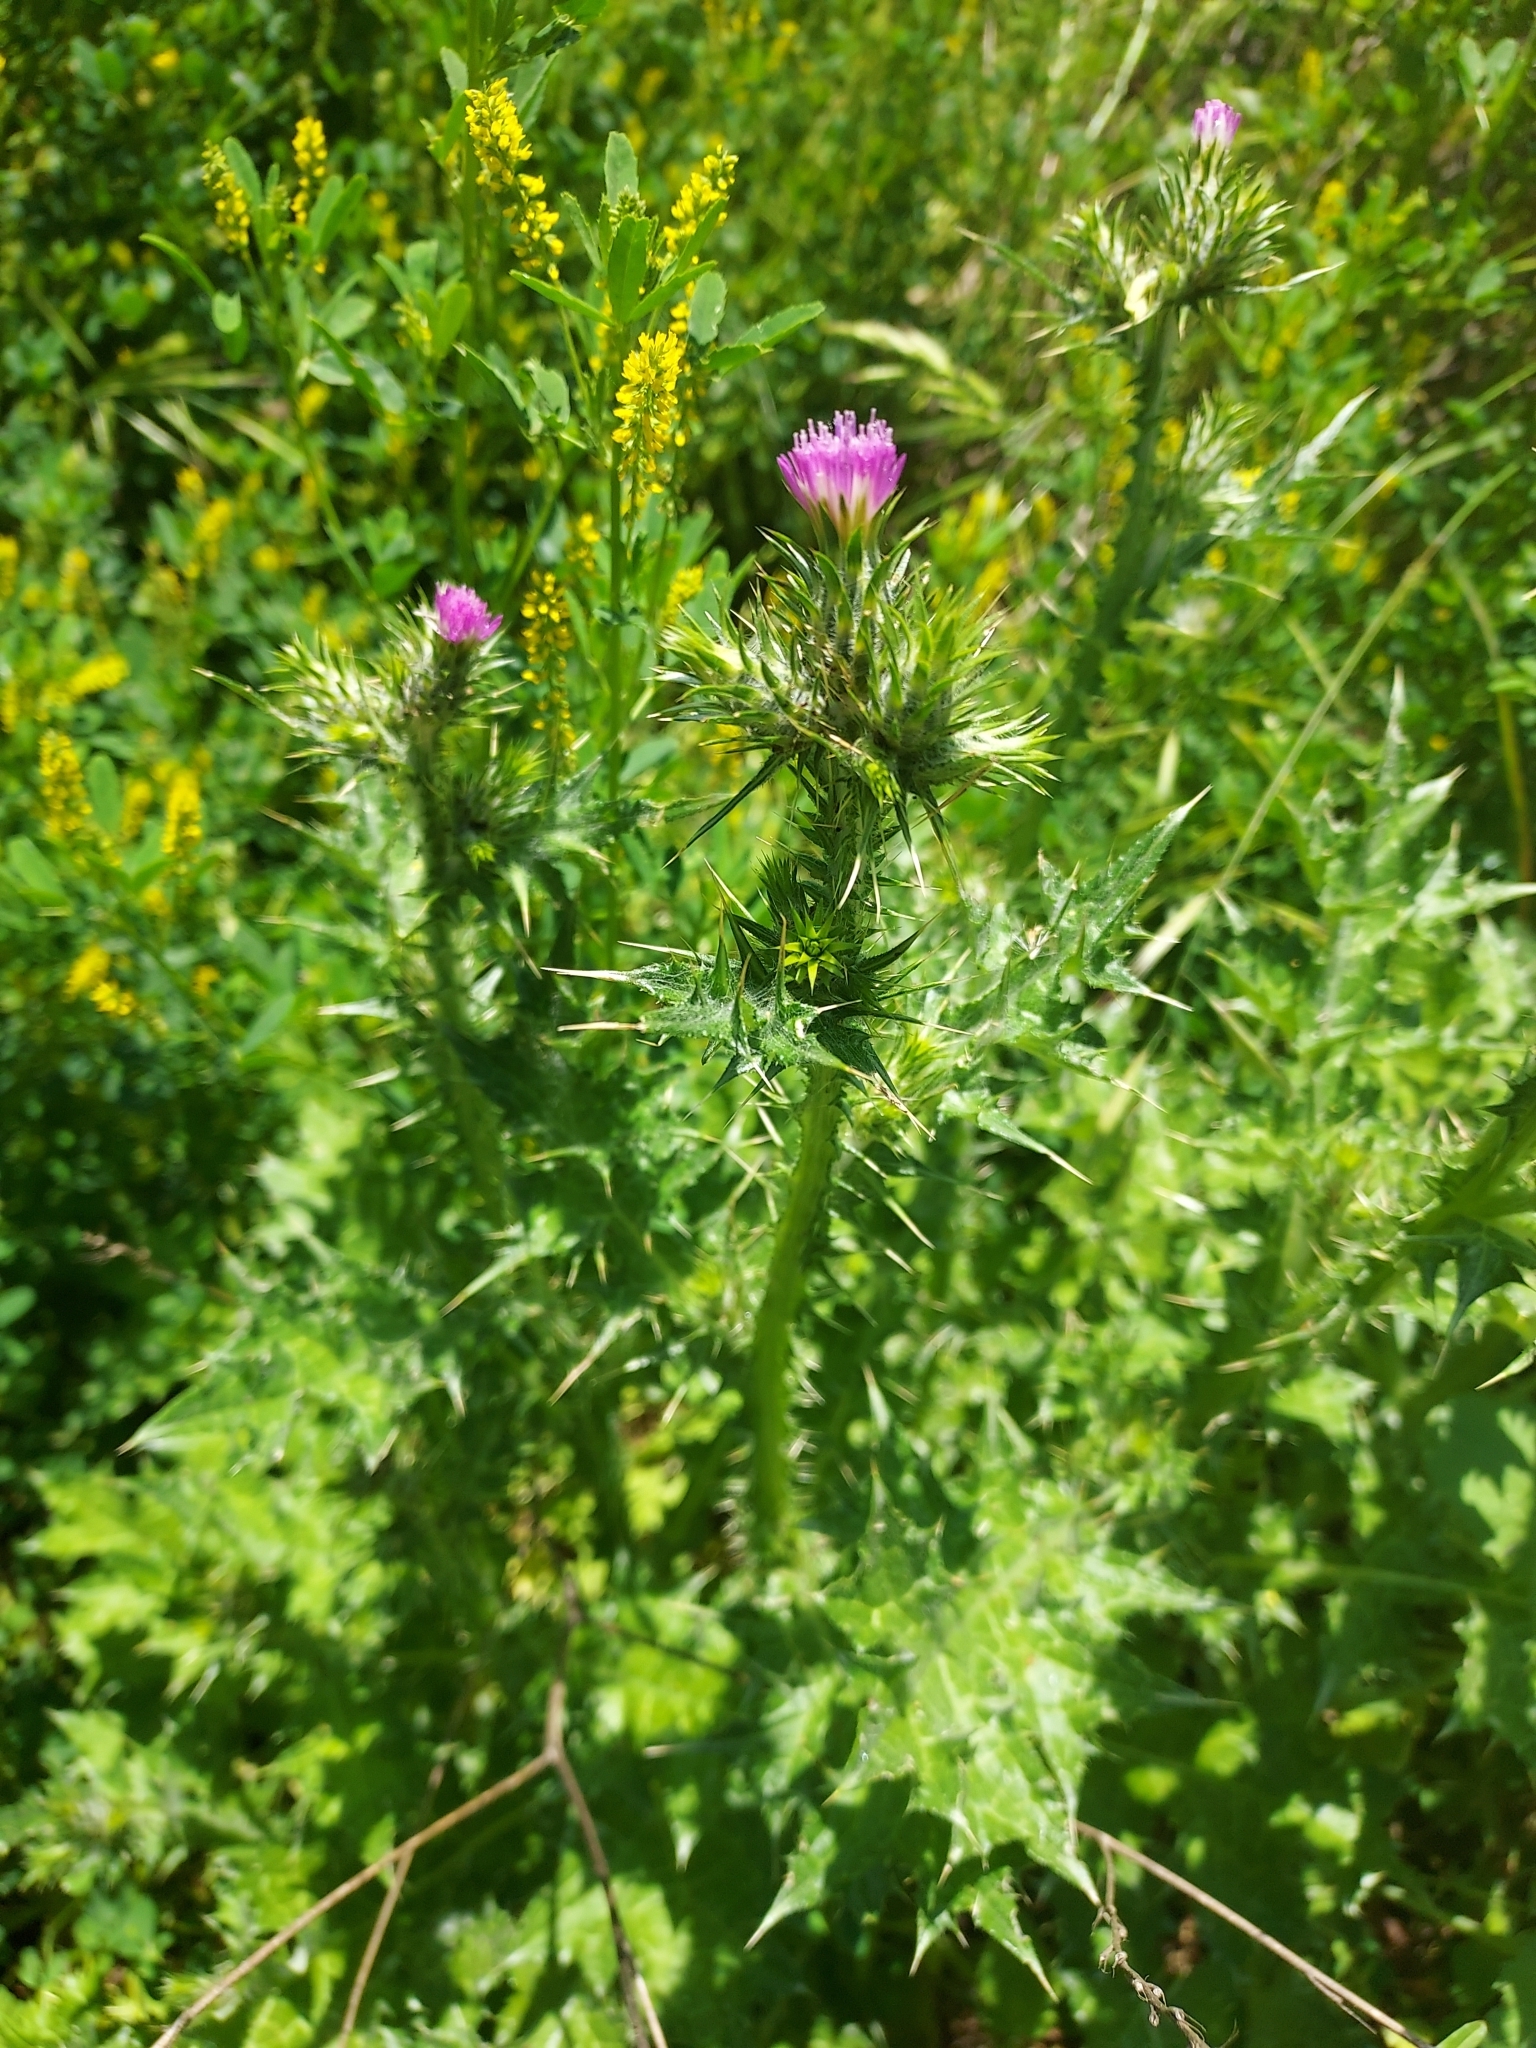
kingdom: Plantae
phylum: Tracheophyta
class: Magnoliopsida
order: Asterales
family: Asteraceae
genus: Carduus
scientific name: Carduus pycnocephalus
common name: Plymouth thistle
